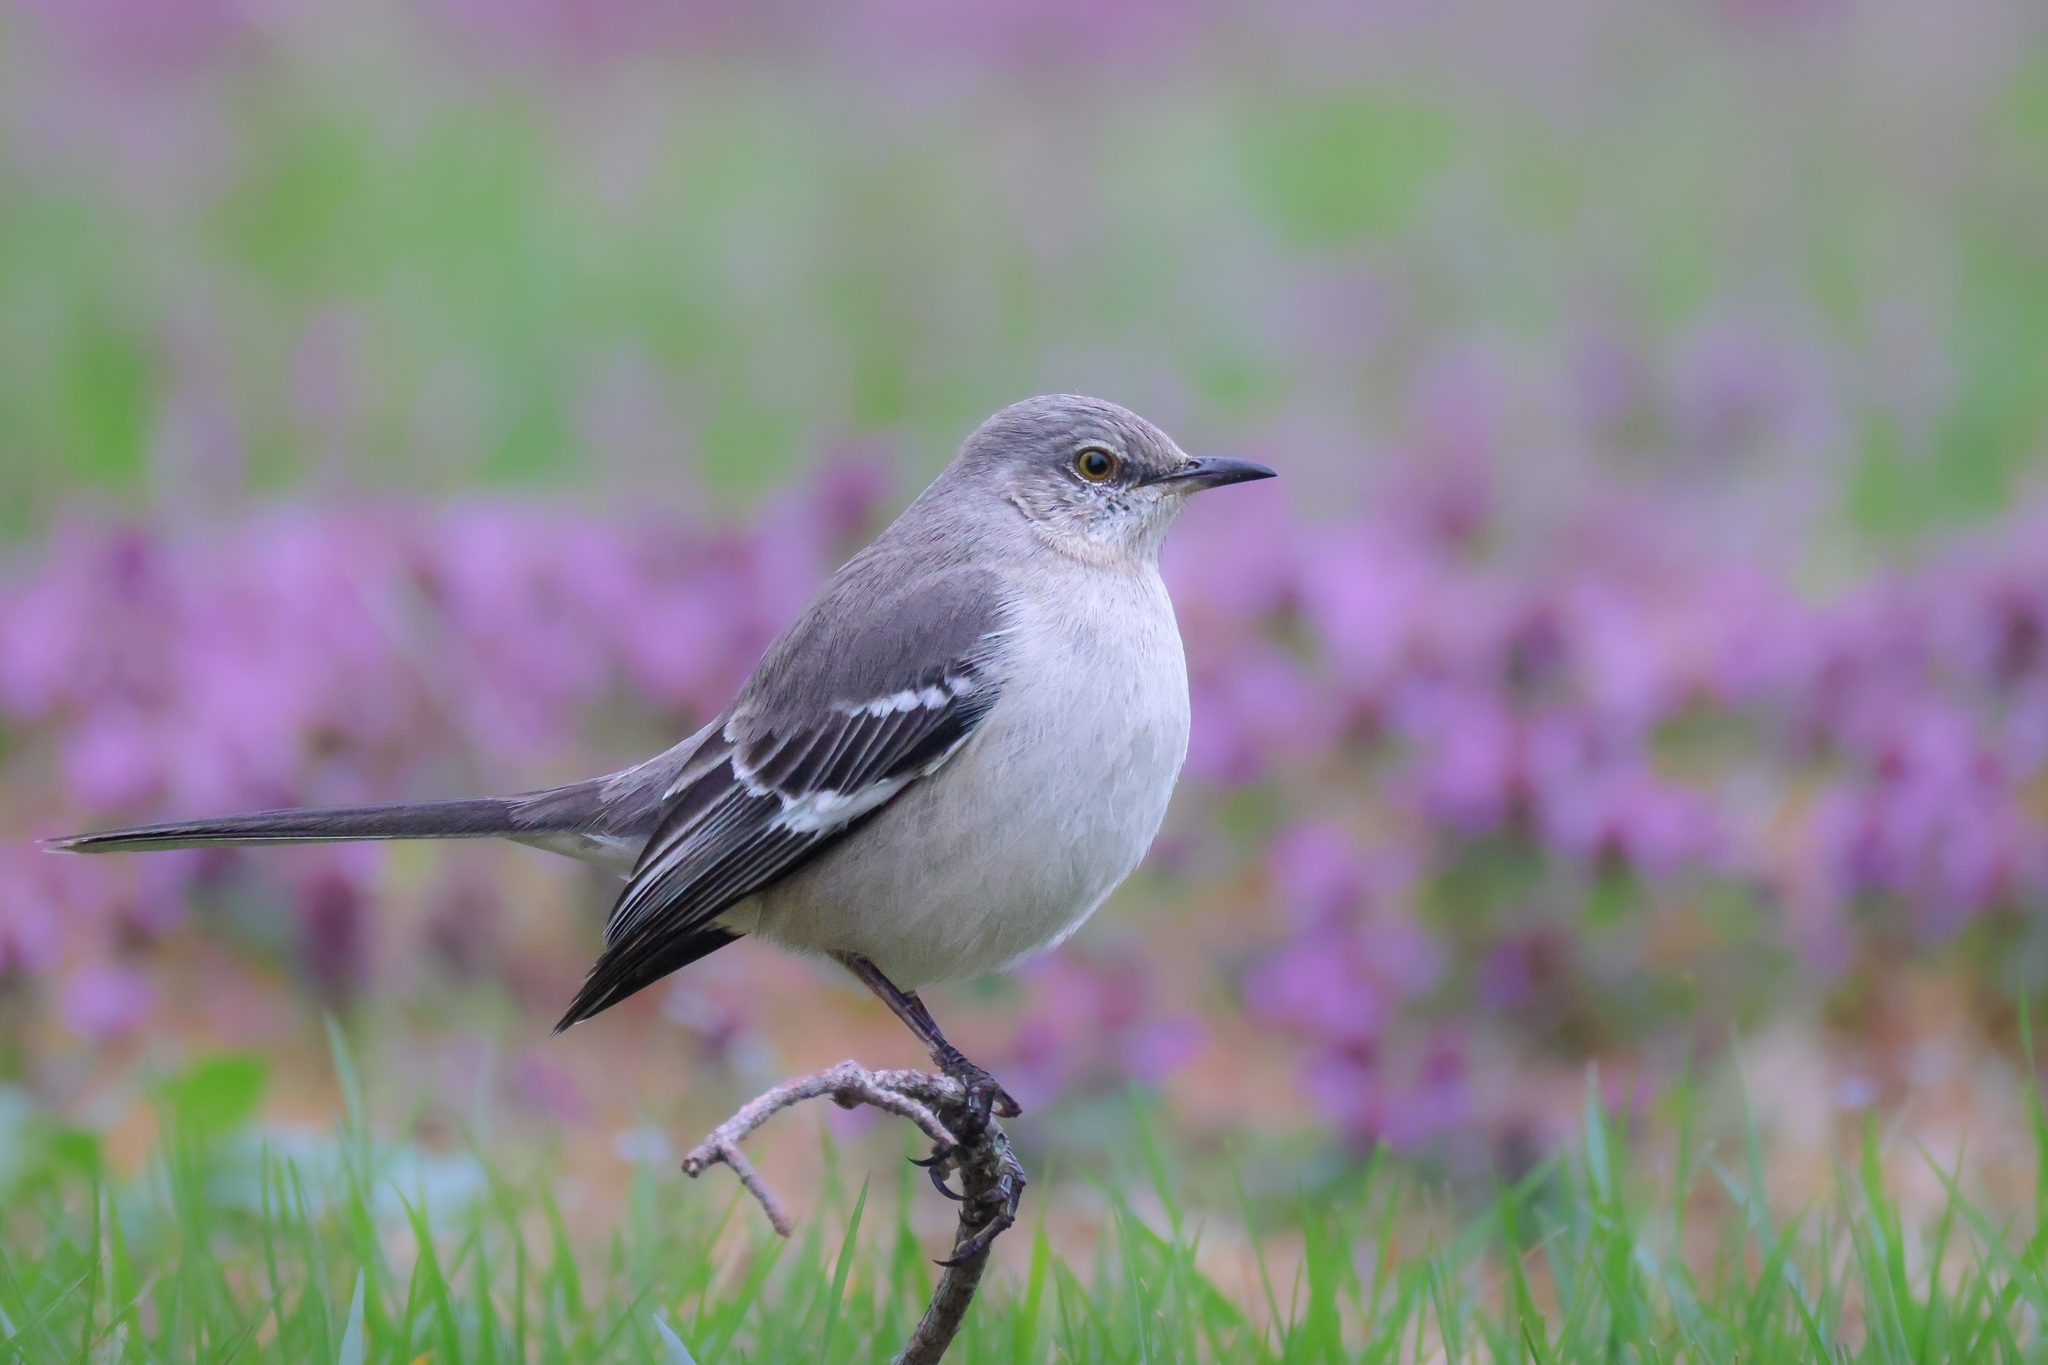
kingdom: Animalia
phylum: Chordata
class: Aves
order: Passeriformes
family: Mimidae
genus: Mimus
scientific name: Mimus polyglottos
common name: Northern mockingbird
